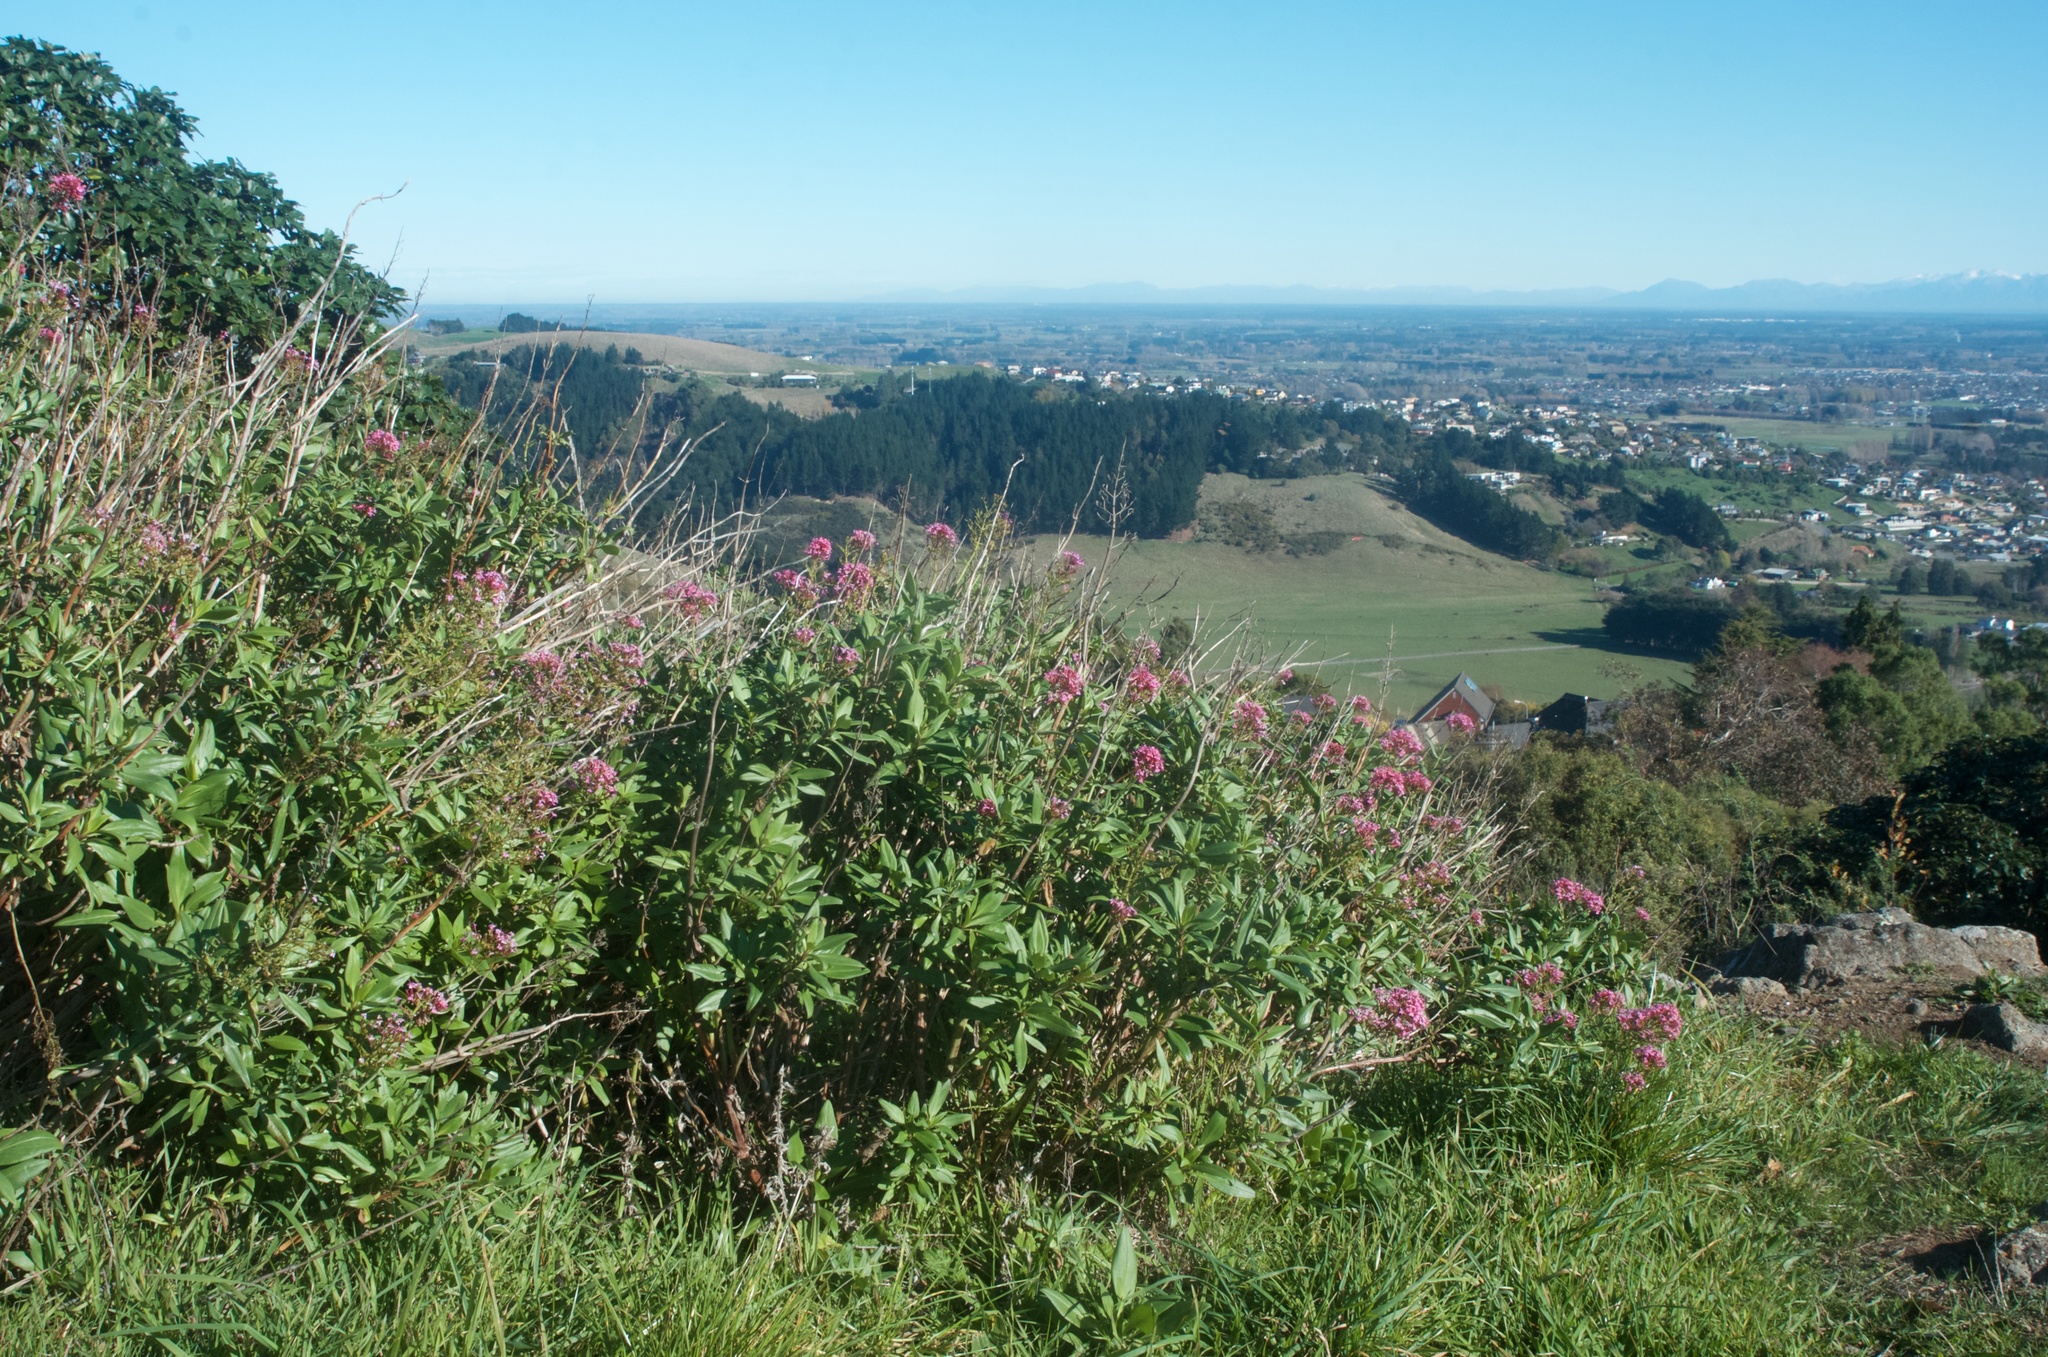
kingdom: Plantae
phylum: Tracheophyta
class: Magnoliopsida
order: Dipsacales
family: Caprifoliaceae
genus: Centranthus
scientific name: Centranthus ruber
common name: Red valerian
